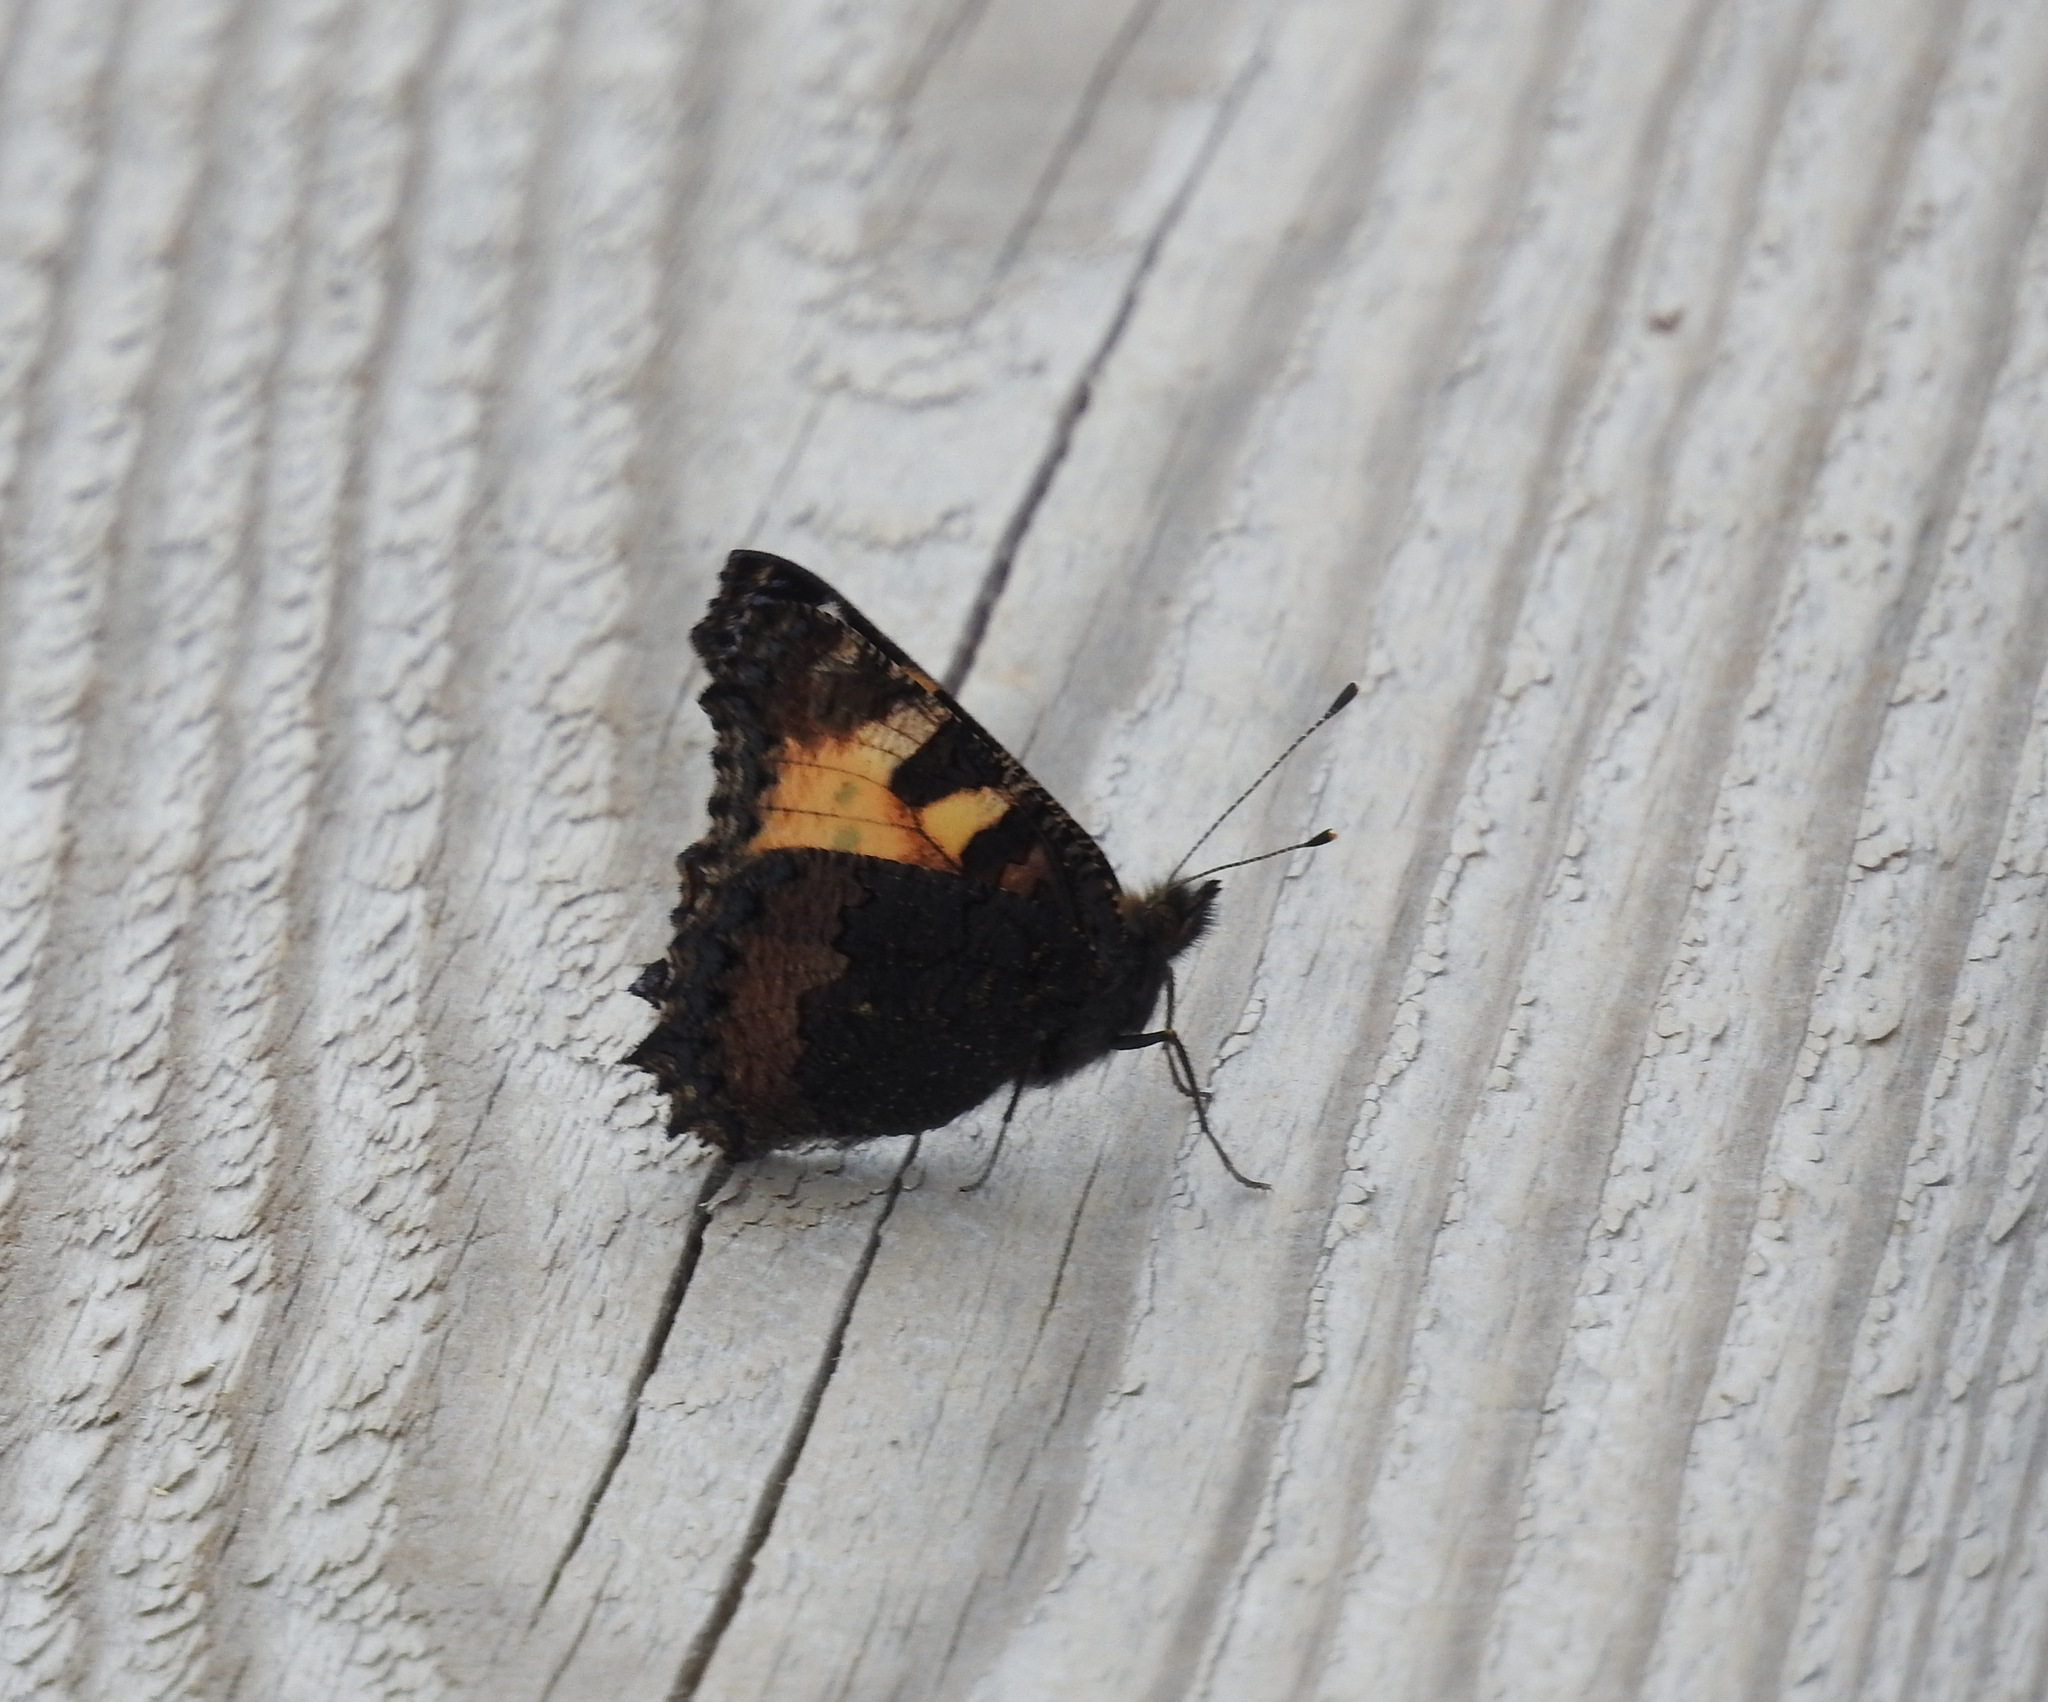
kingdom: Animalia
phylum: Arthropoda
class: Insecta
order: Lepidoptera
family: Nymphalidae
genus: Aglais
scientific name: Aglais urticae
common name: Small tortoiseshell
